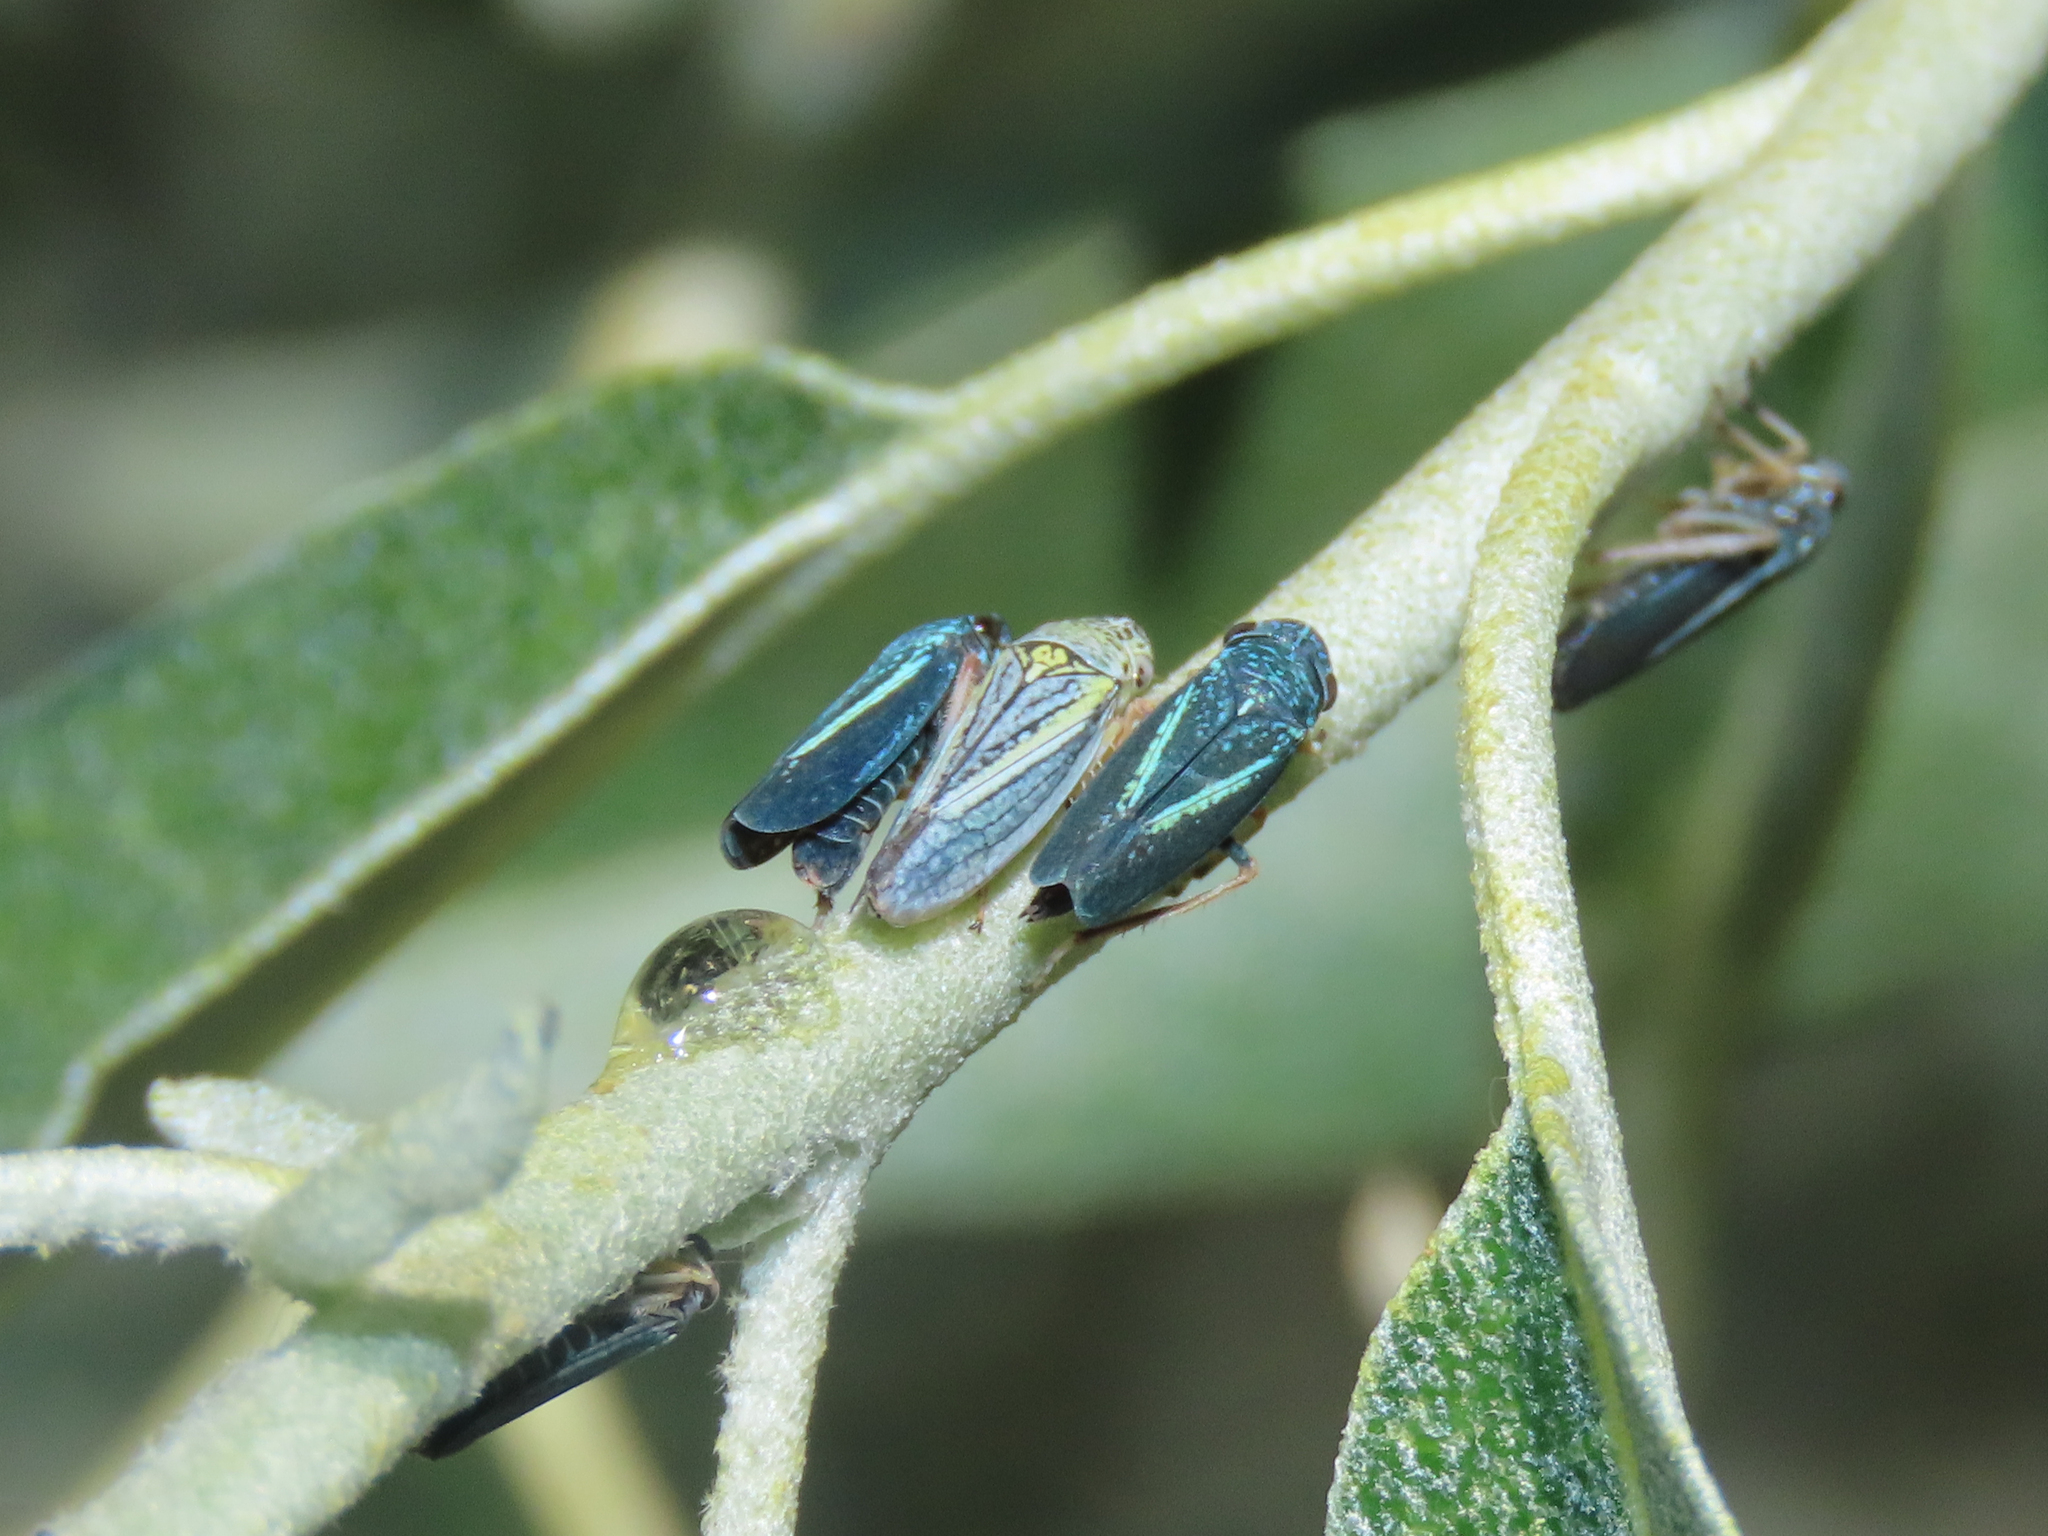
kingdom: Animalia
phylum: Arthropoda
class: Insecta
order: Hemiptera
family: Cicadellidae
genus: Graphocephala
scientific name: Graphocephala lugubris
